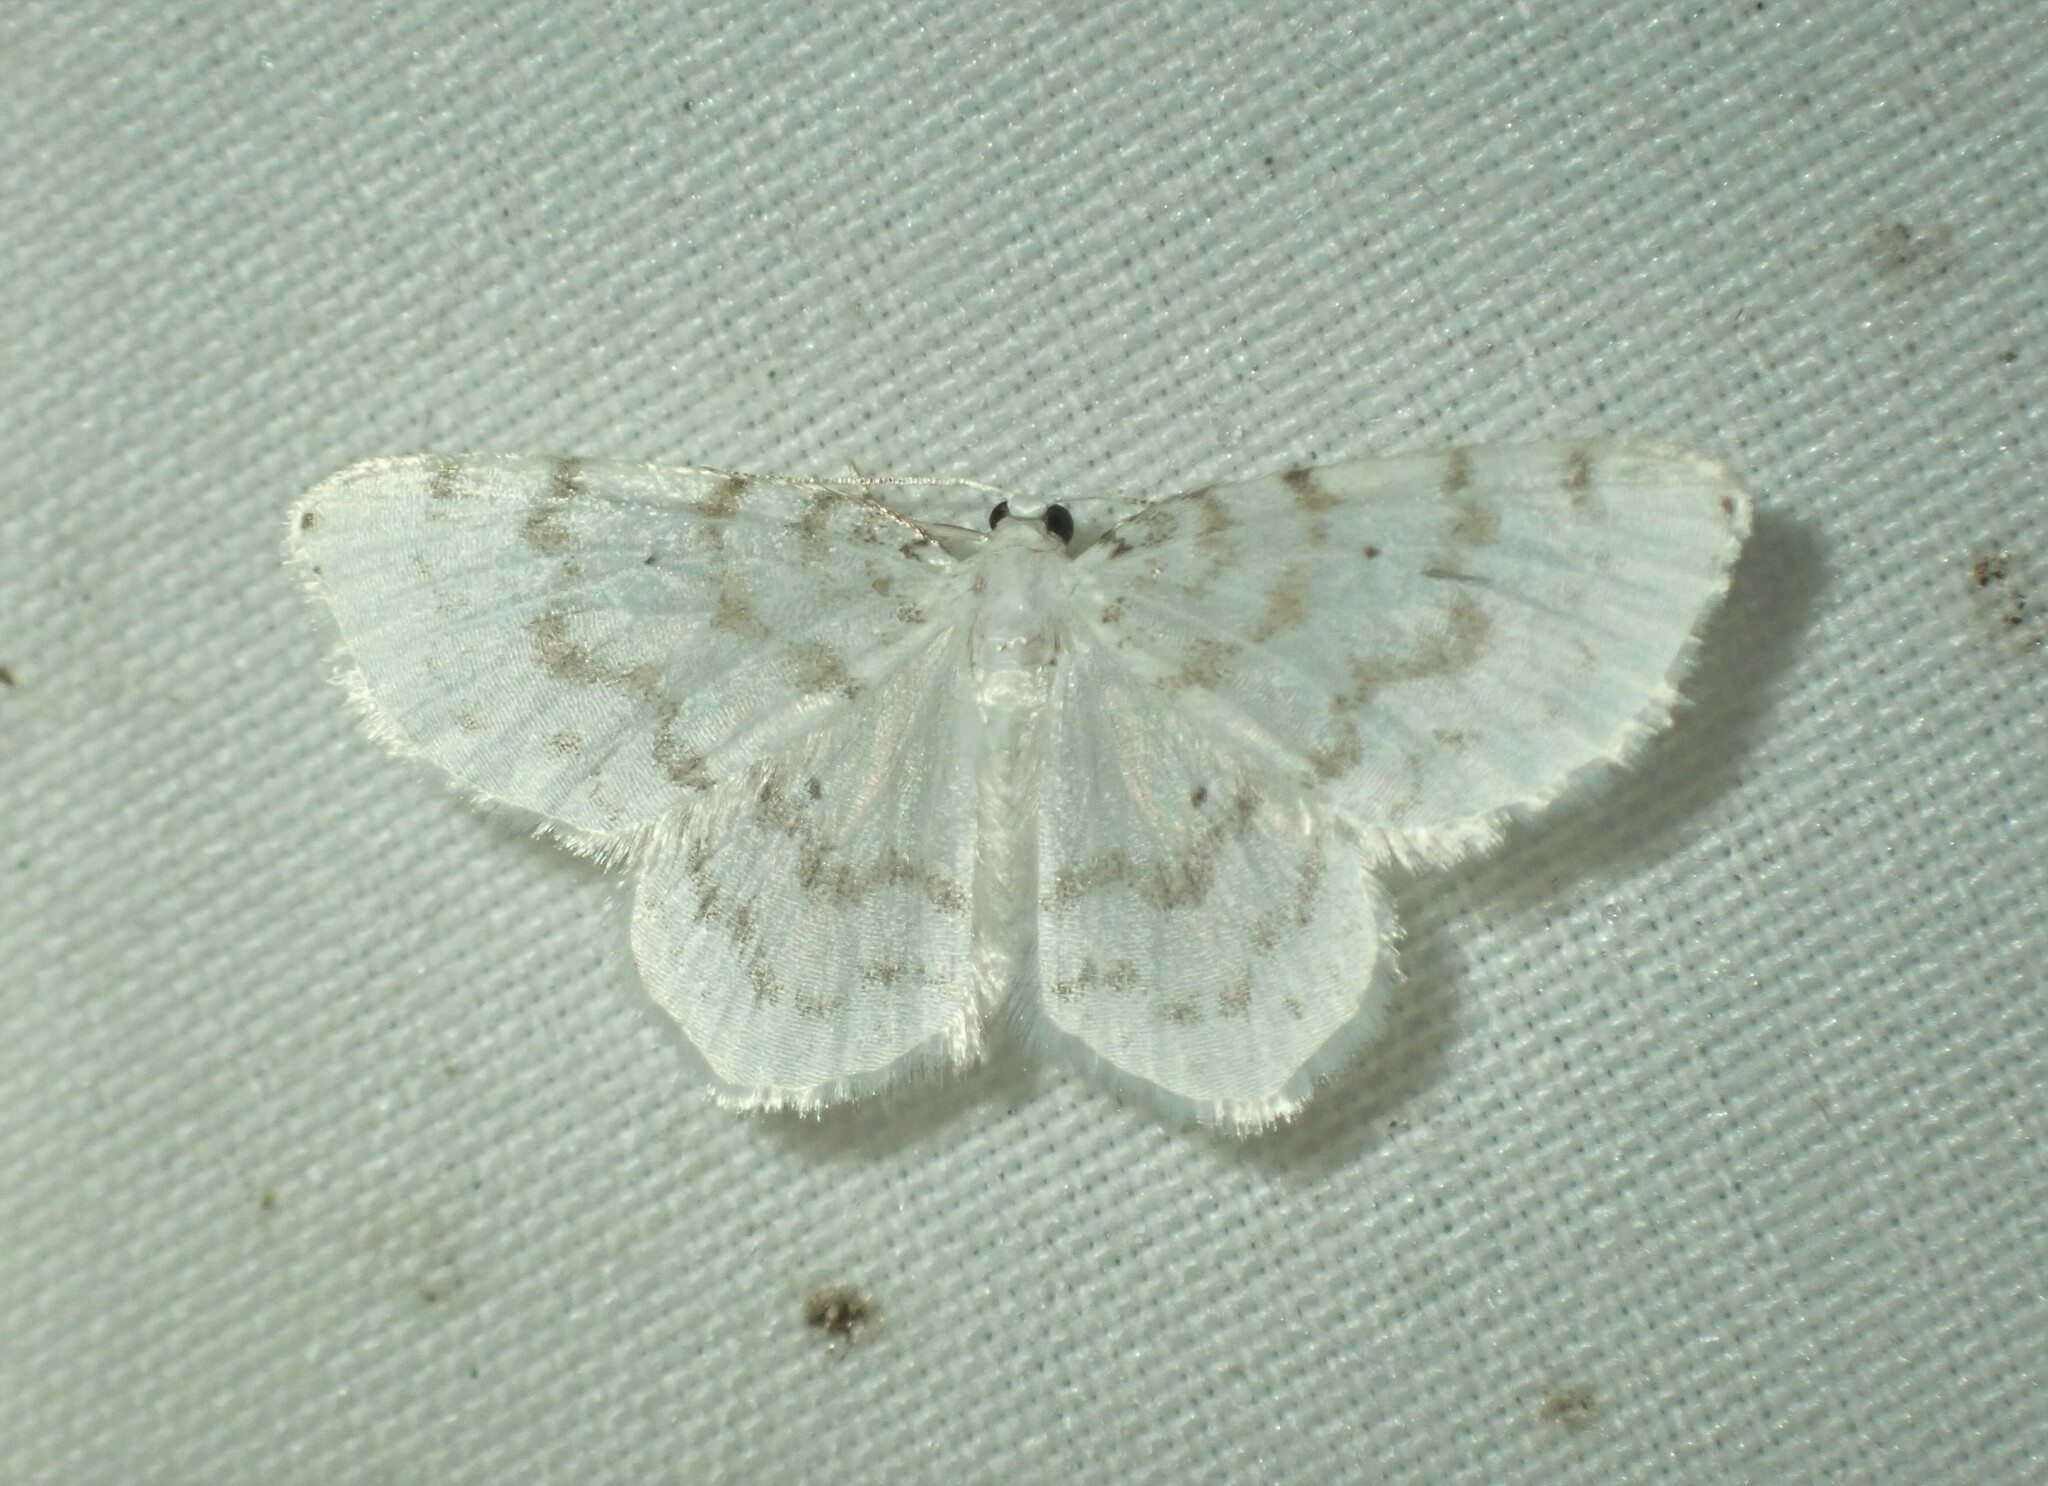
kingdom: Animalia
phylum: Arthropoda
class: Insecta
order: Lepidoptera
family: Geometridae
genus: Hydrelia
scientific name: Hydrelia albifera
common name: Fragile white carpet
